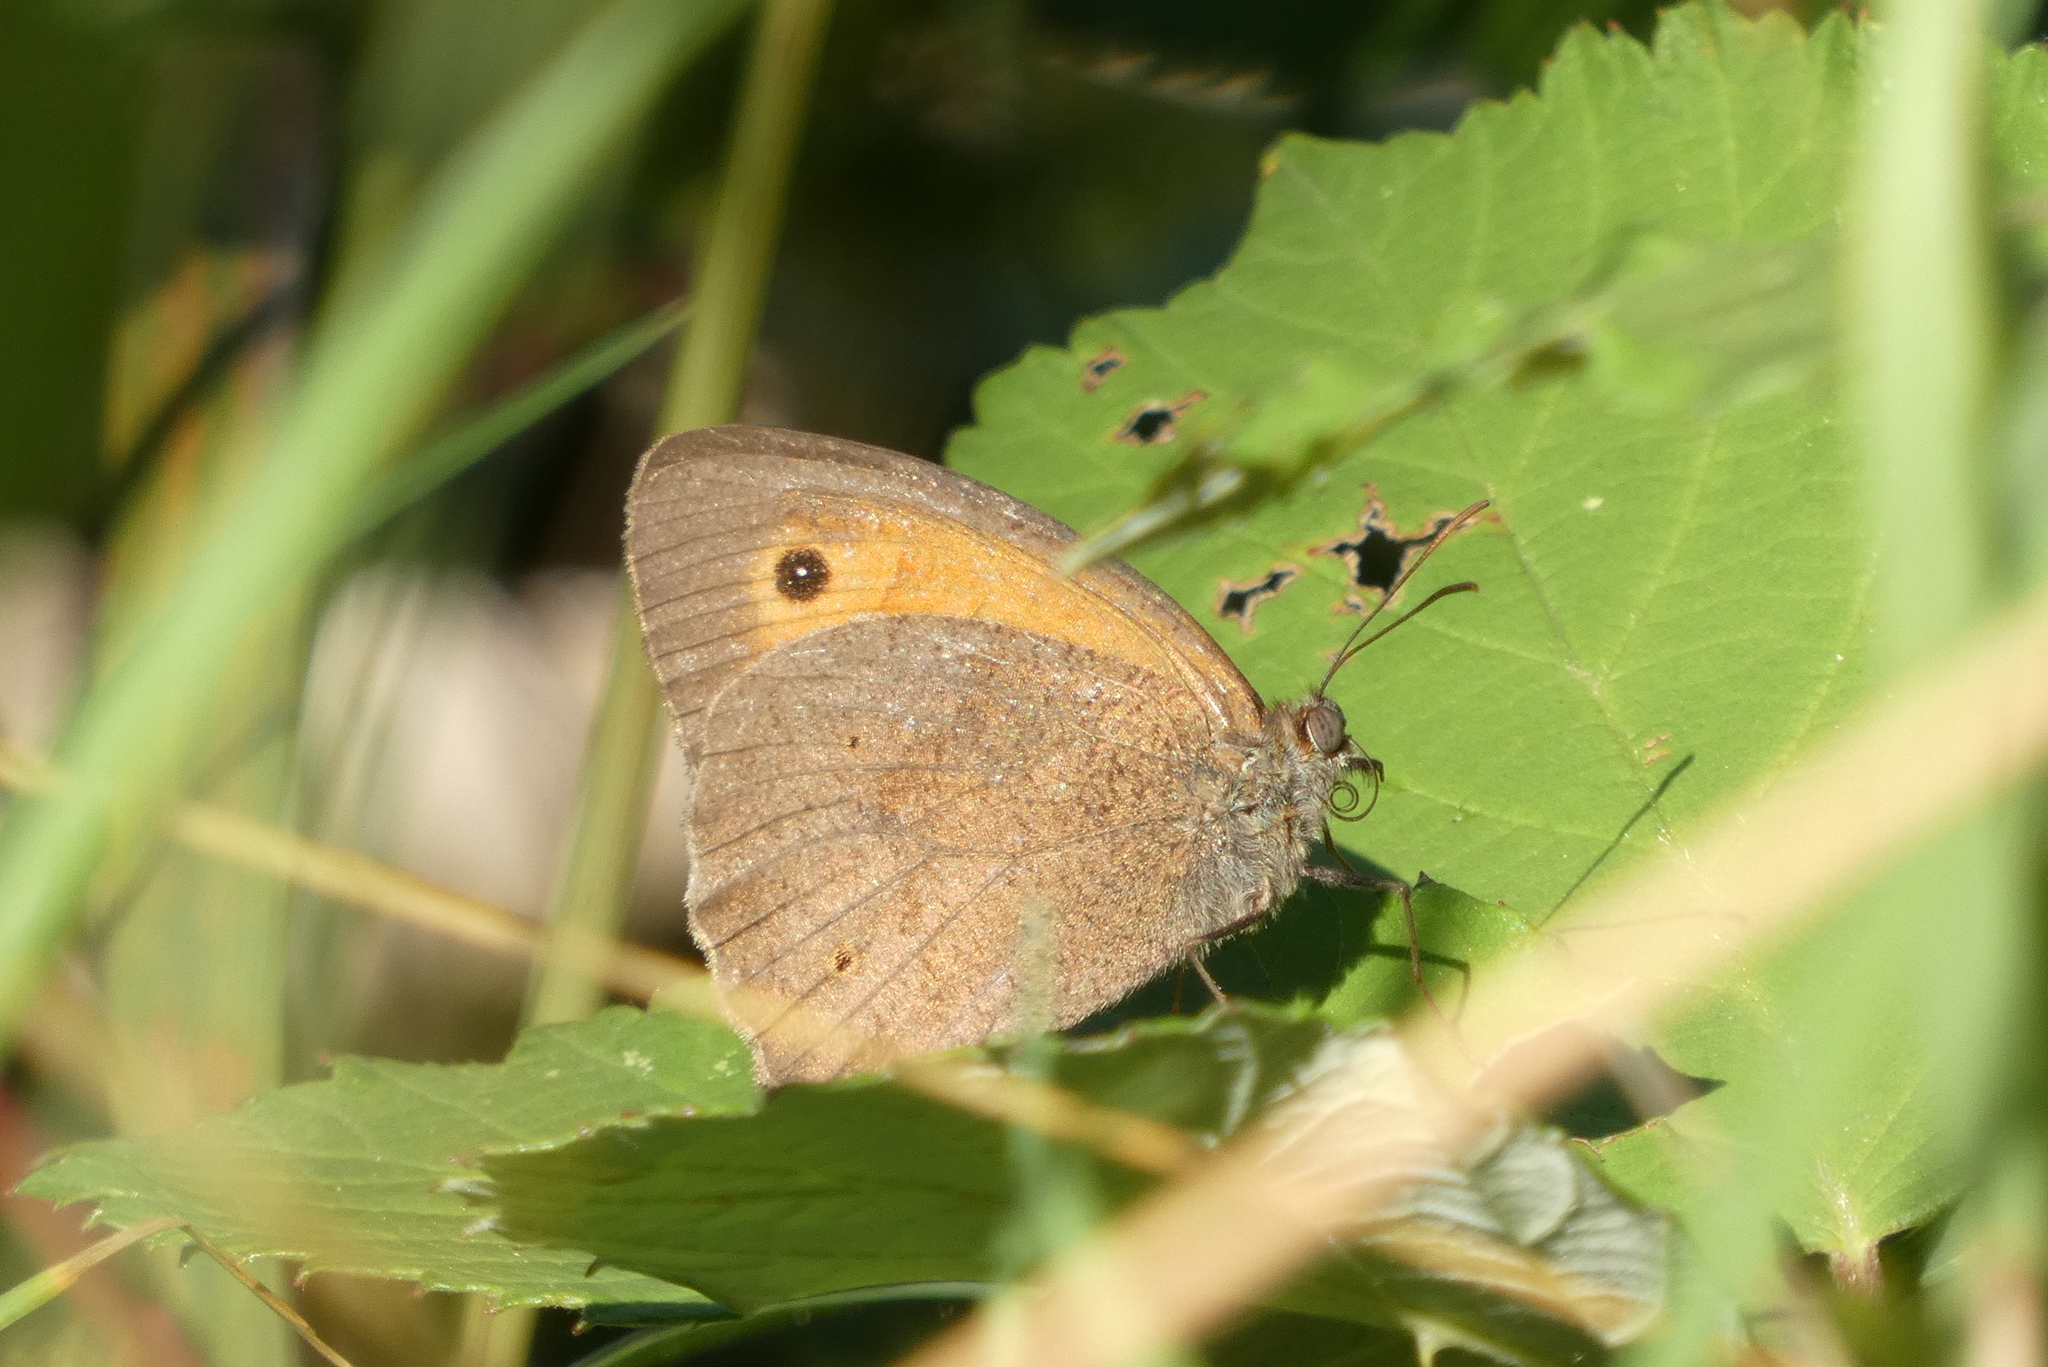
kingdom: Animalia
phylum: Arthropoda
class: Insecta
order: Lepidoptera
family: Nymphalidae
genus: Maniola
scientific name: Maniola jurtina
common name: Meadow brown
